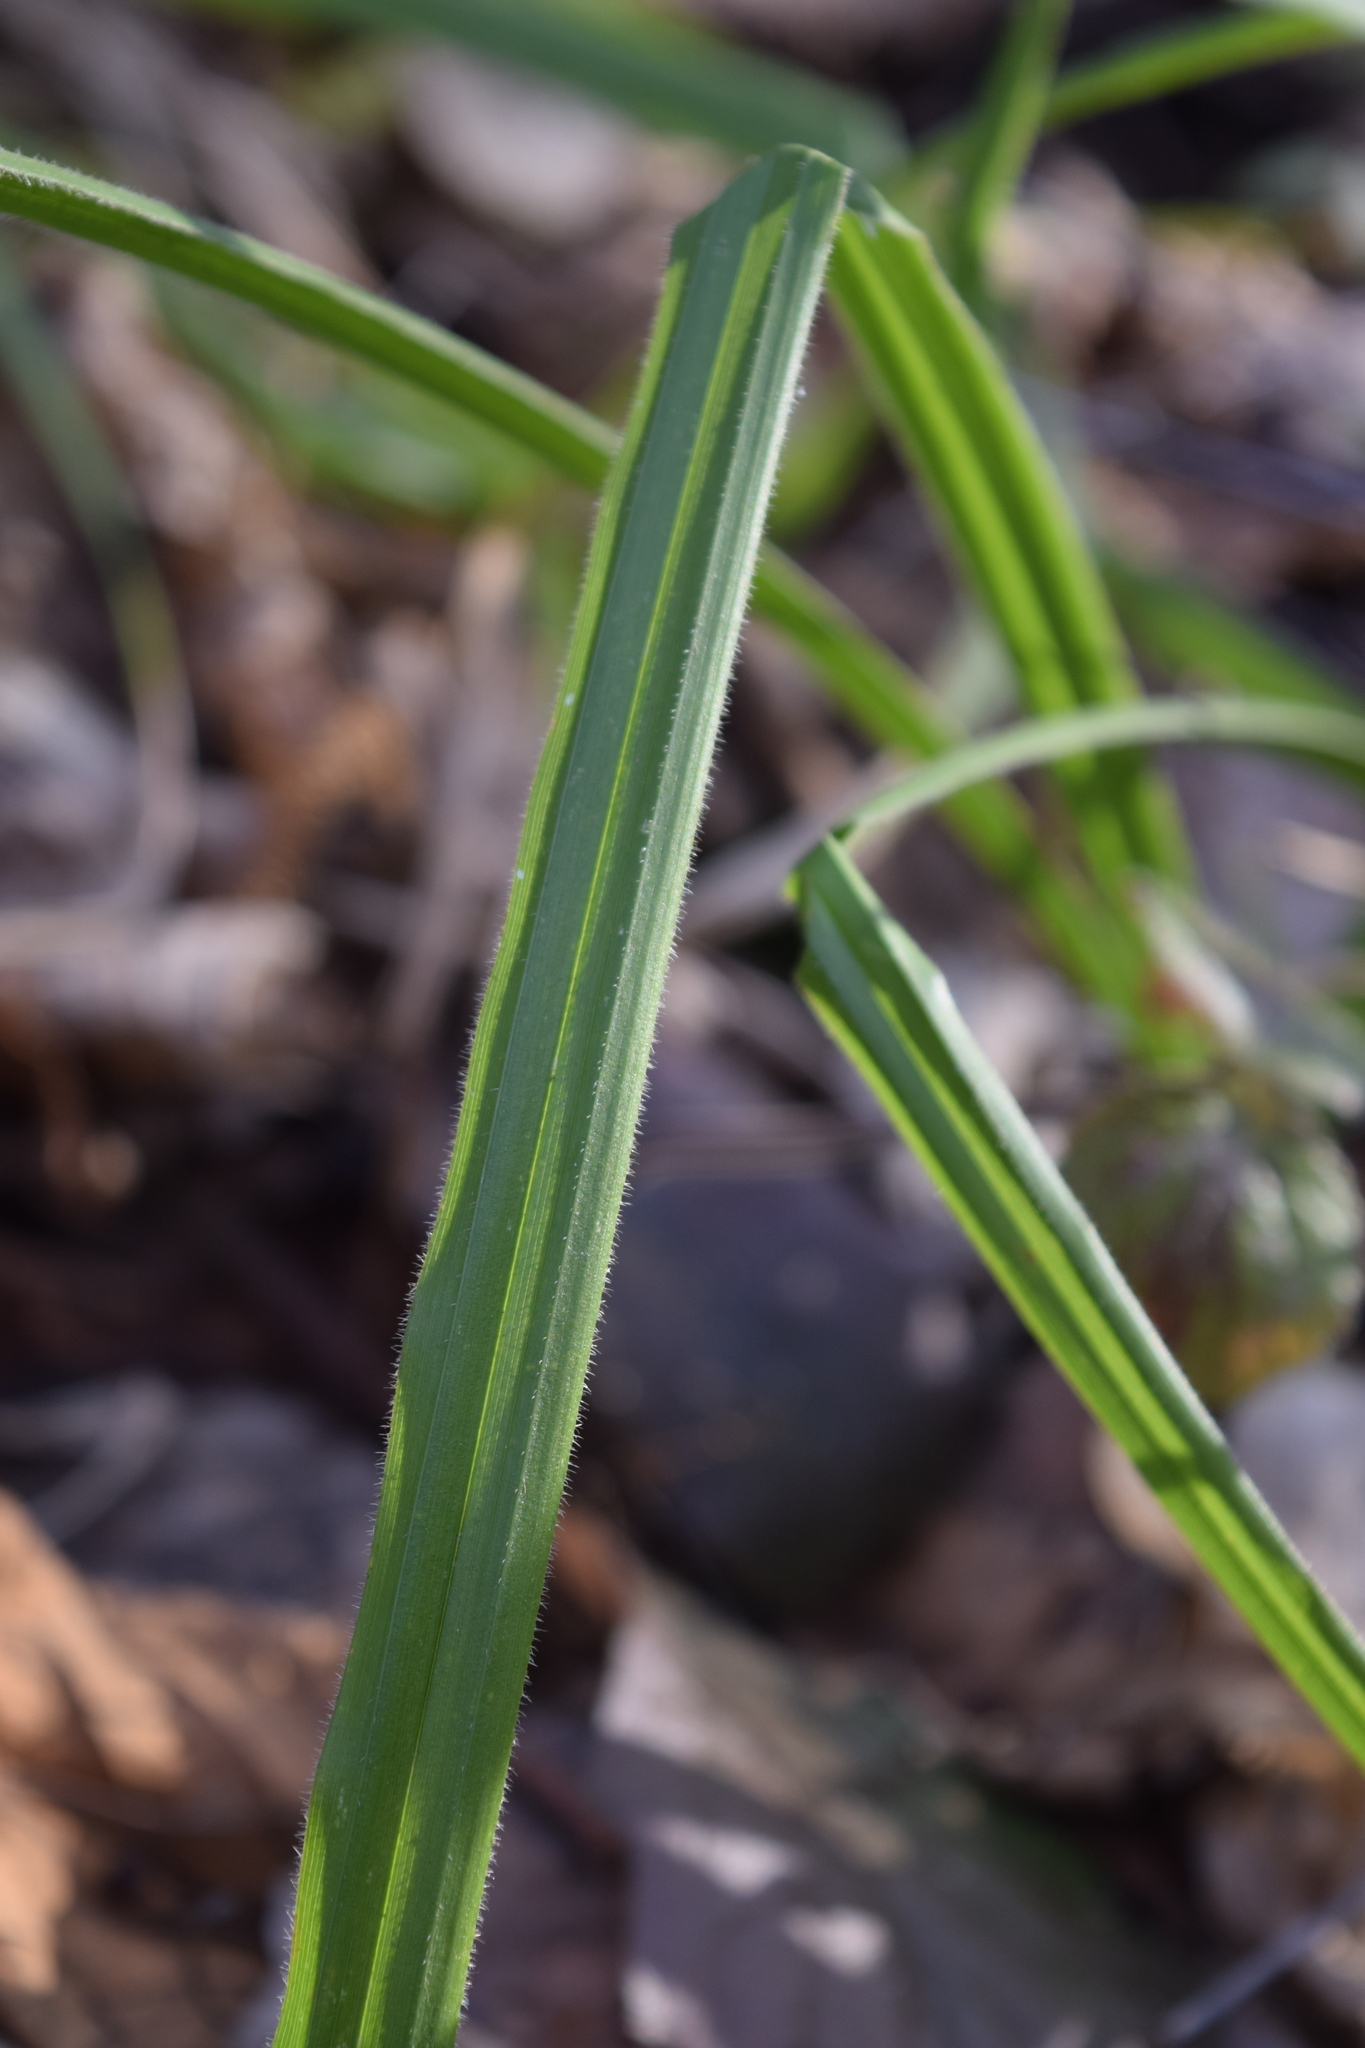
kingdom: Plantae
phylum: Tracheophyta
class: Liliopsida
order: Poales
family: Cyperaceae
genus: Carex
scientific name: Carex pilosa
